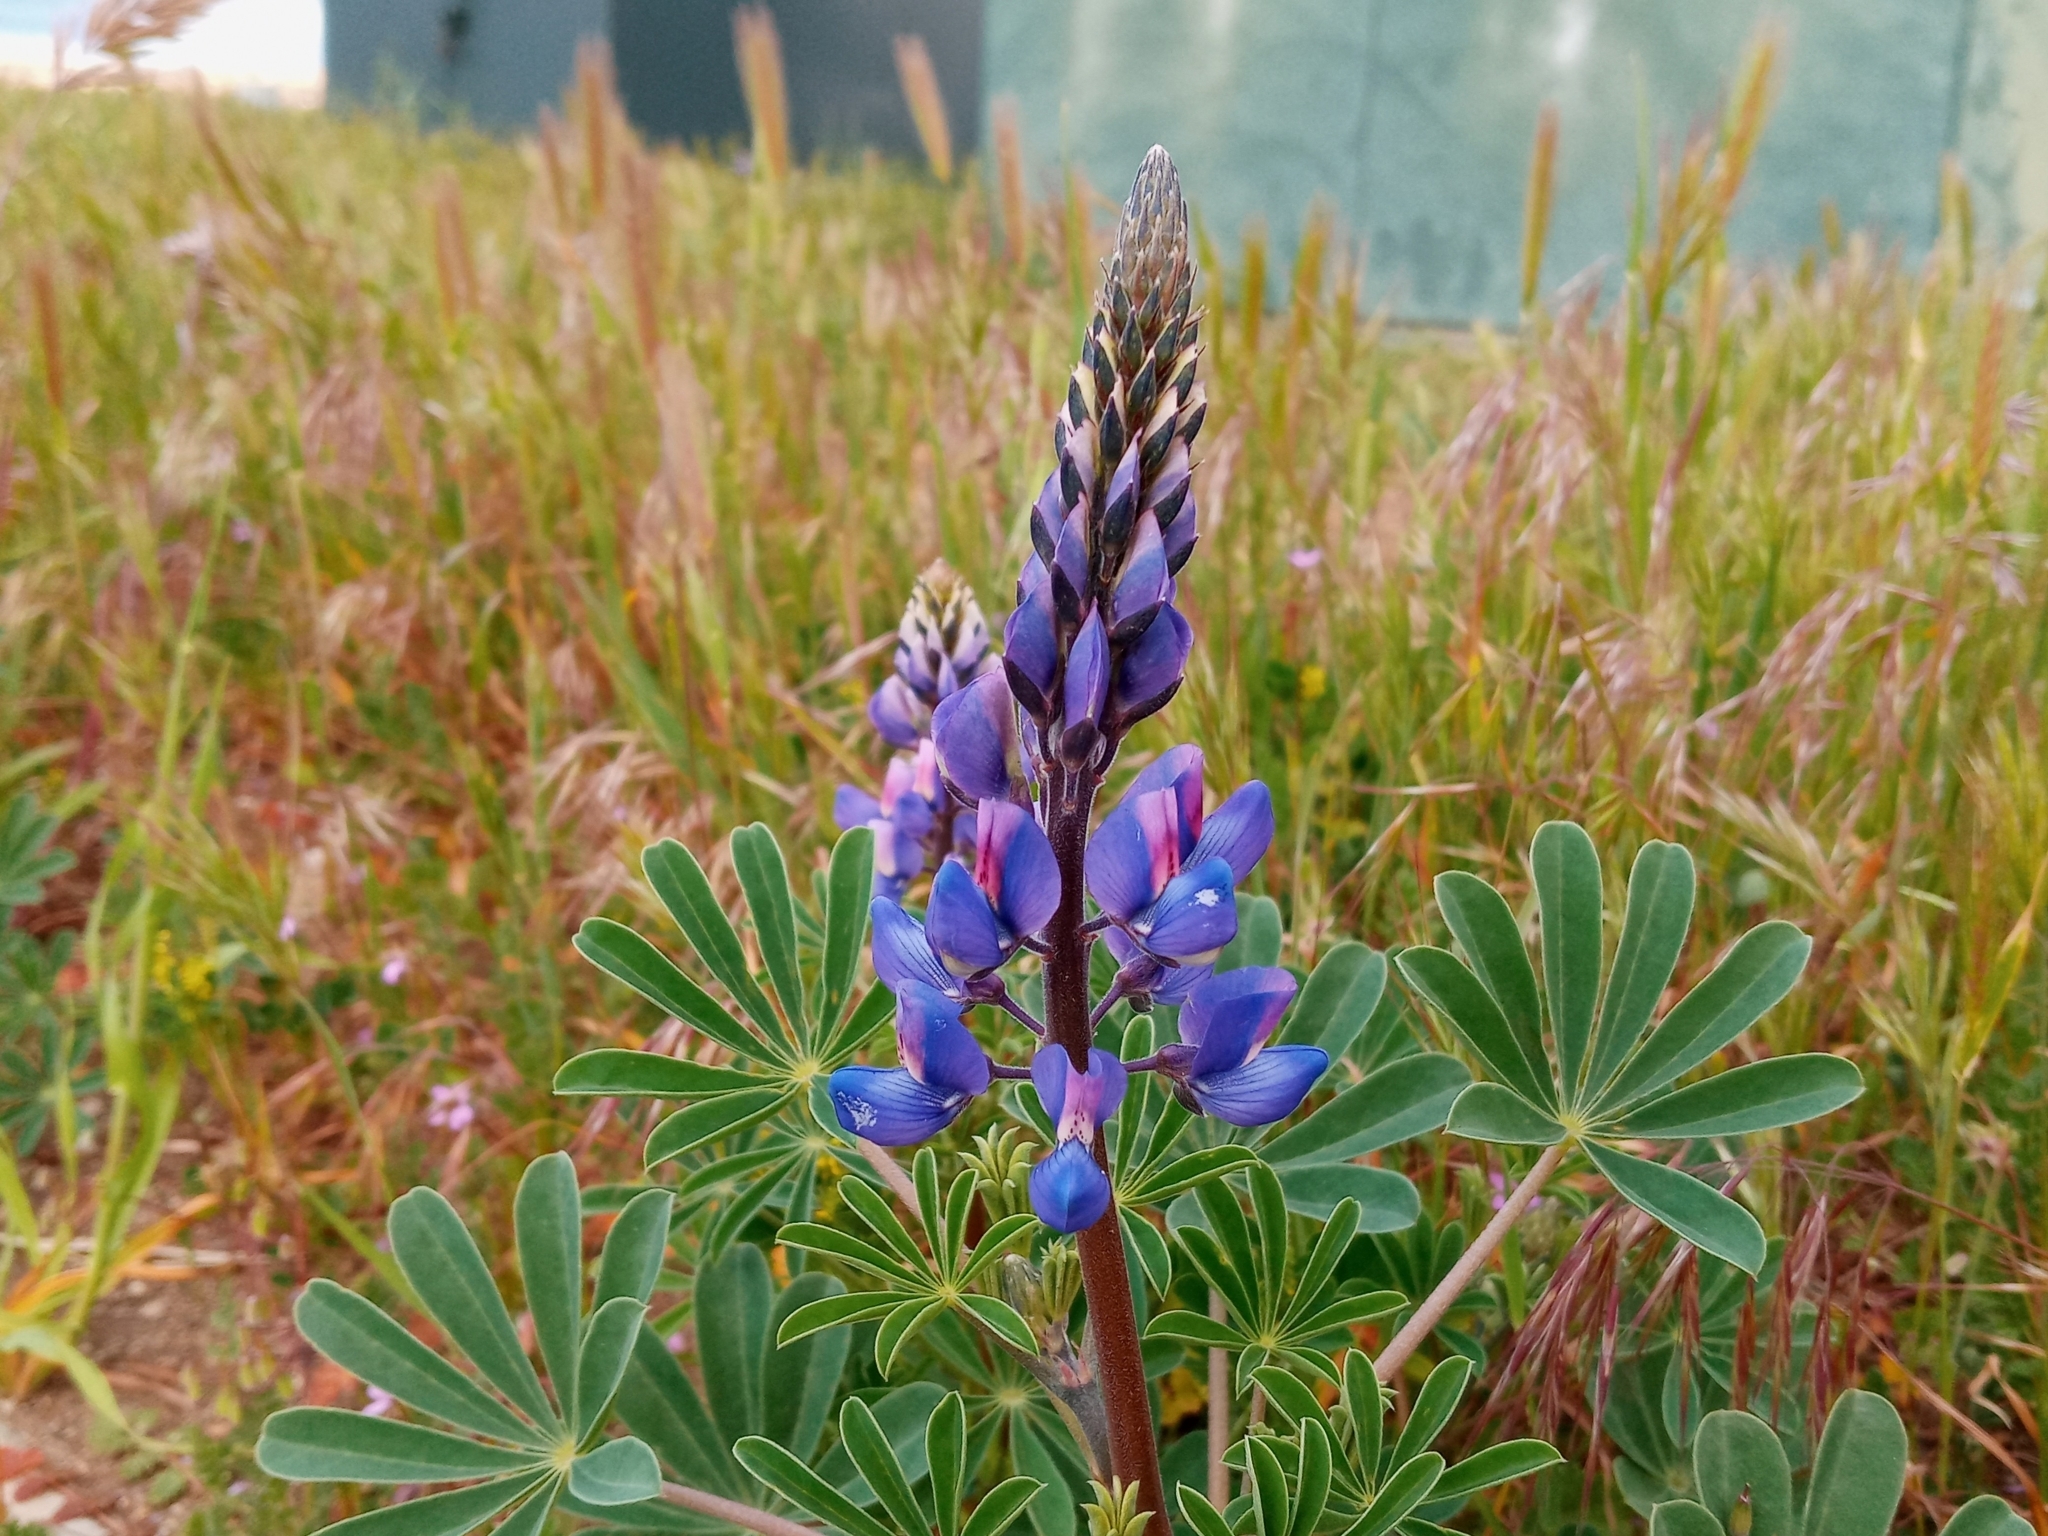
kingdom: Plantae
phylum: Tracheophyta
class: Magnoliopsida
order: Fabales
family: Fabaceae
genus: Lupinus
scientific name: Lupinus succulentus
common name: Arroyo lupine
